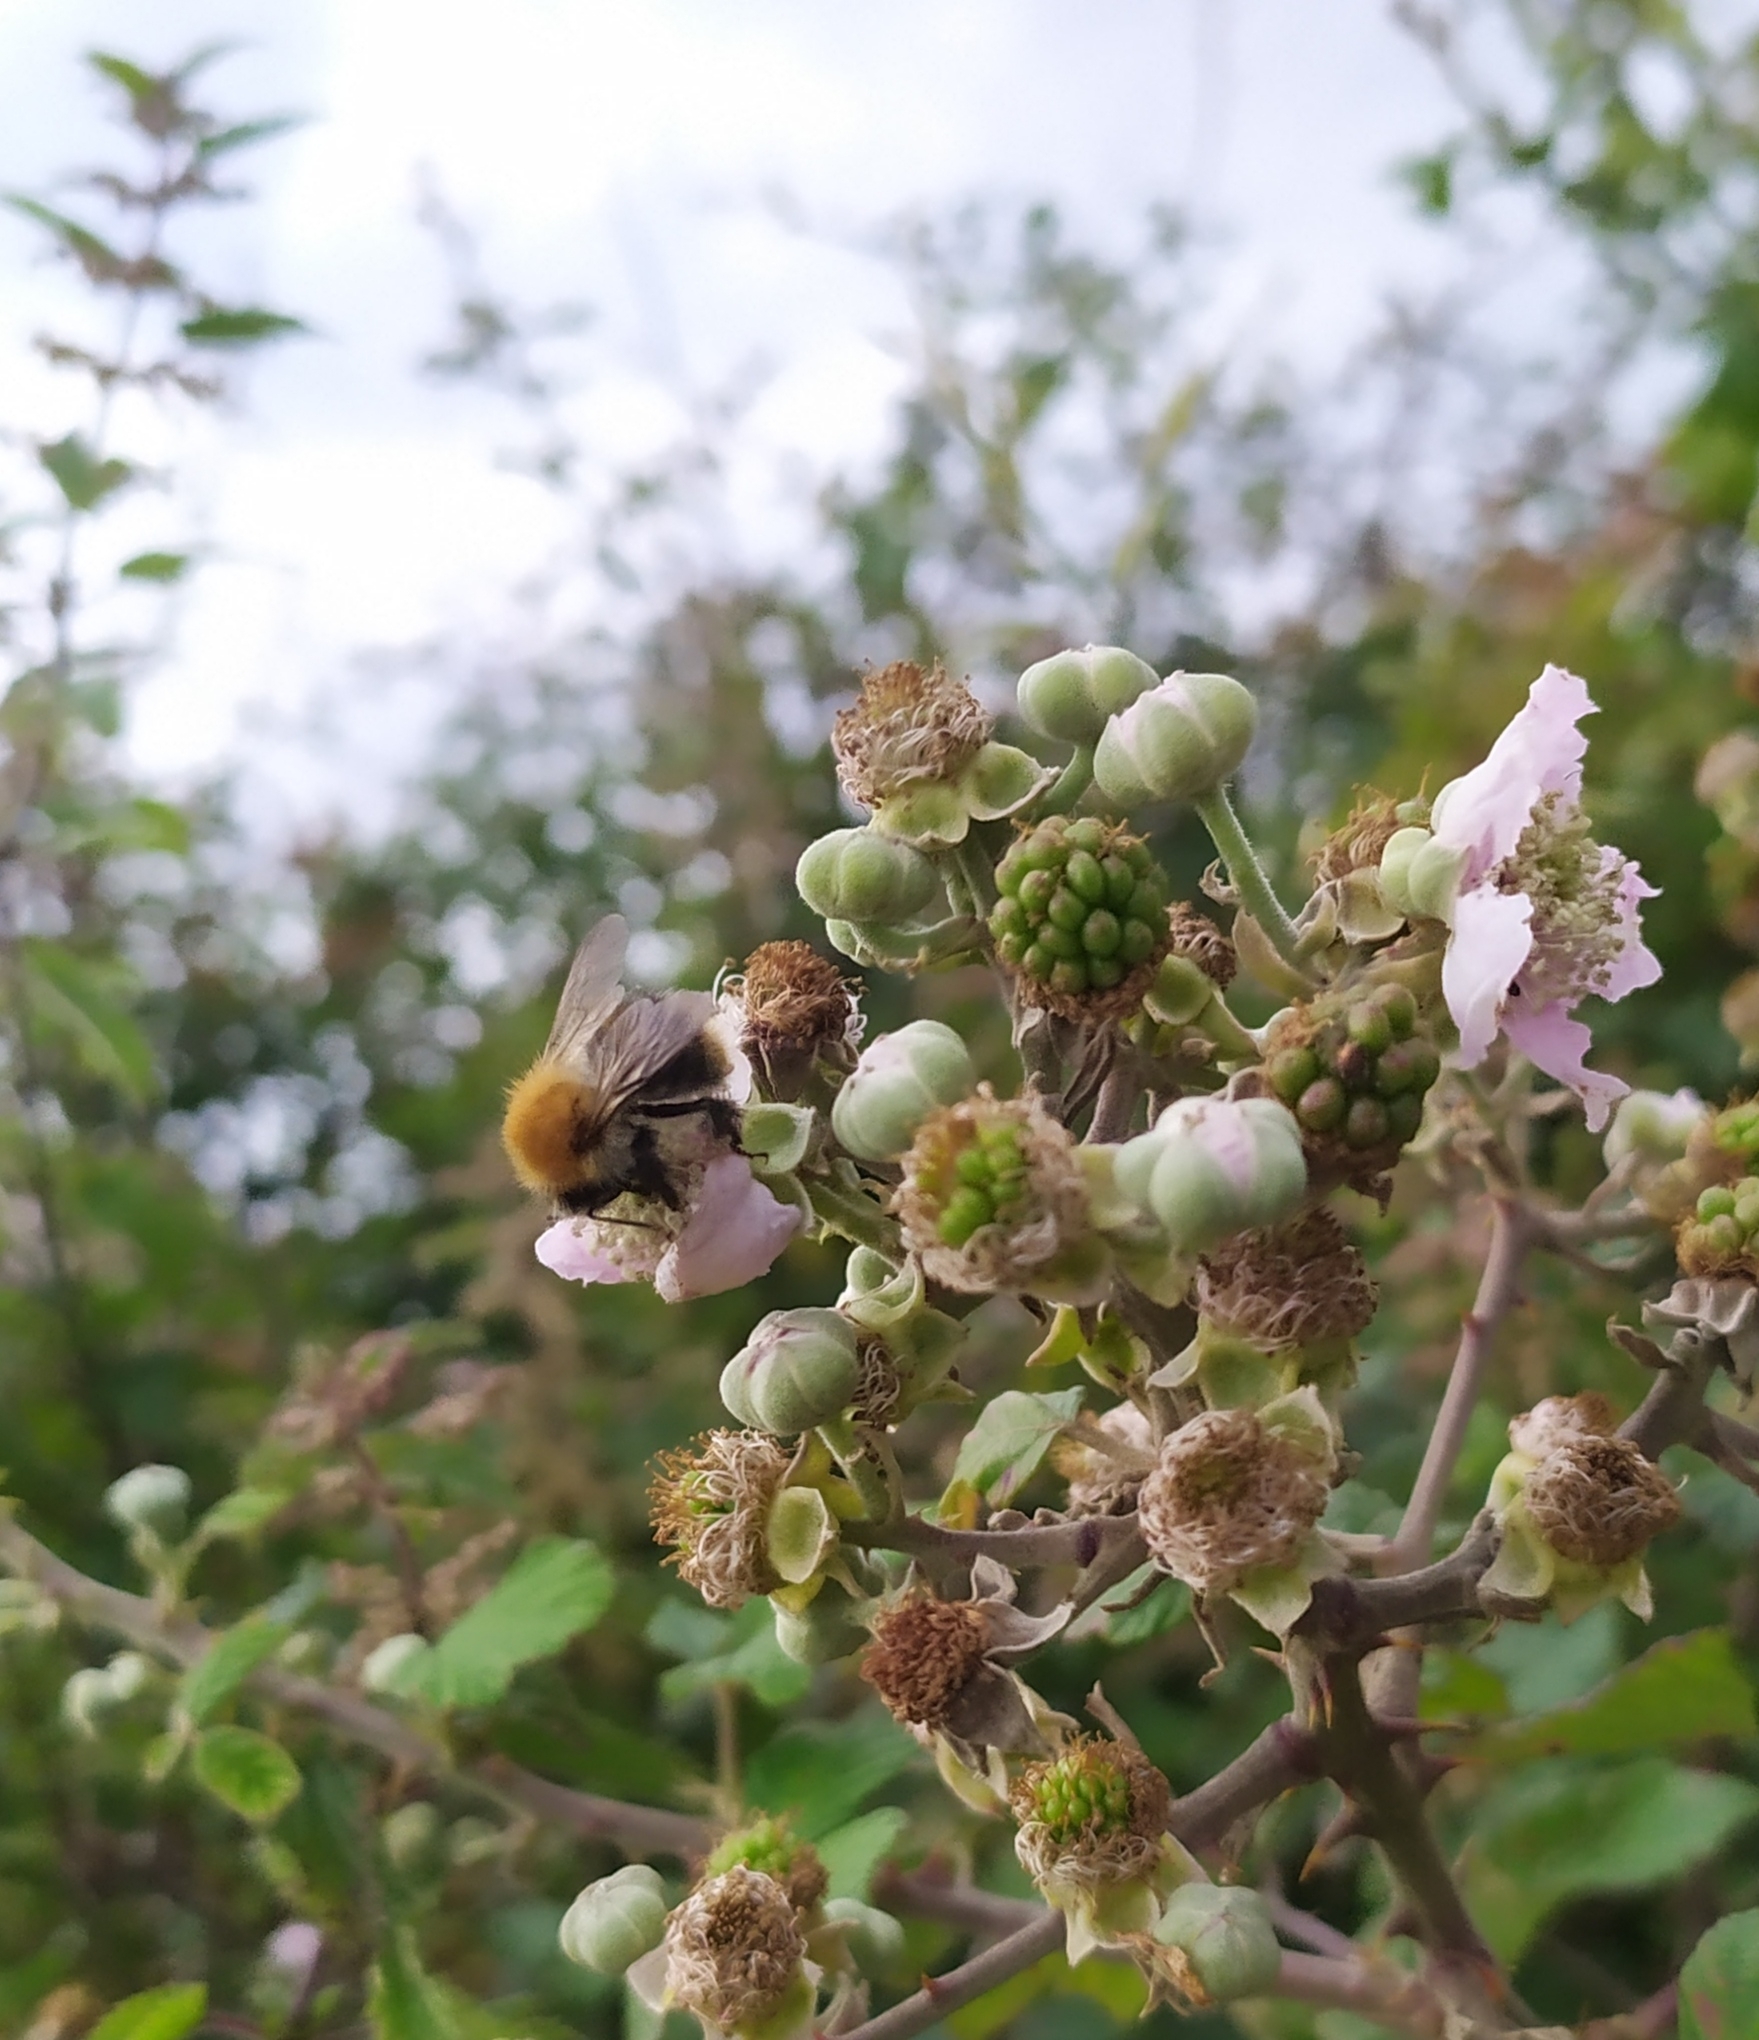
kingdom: Animalia
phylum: Arthropoda
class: Insecta
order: Hymenoptera
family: Apidae
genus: Bombus
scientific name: Bombus pascuorum
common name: Common carder bee
